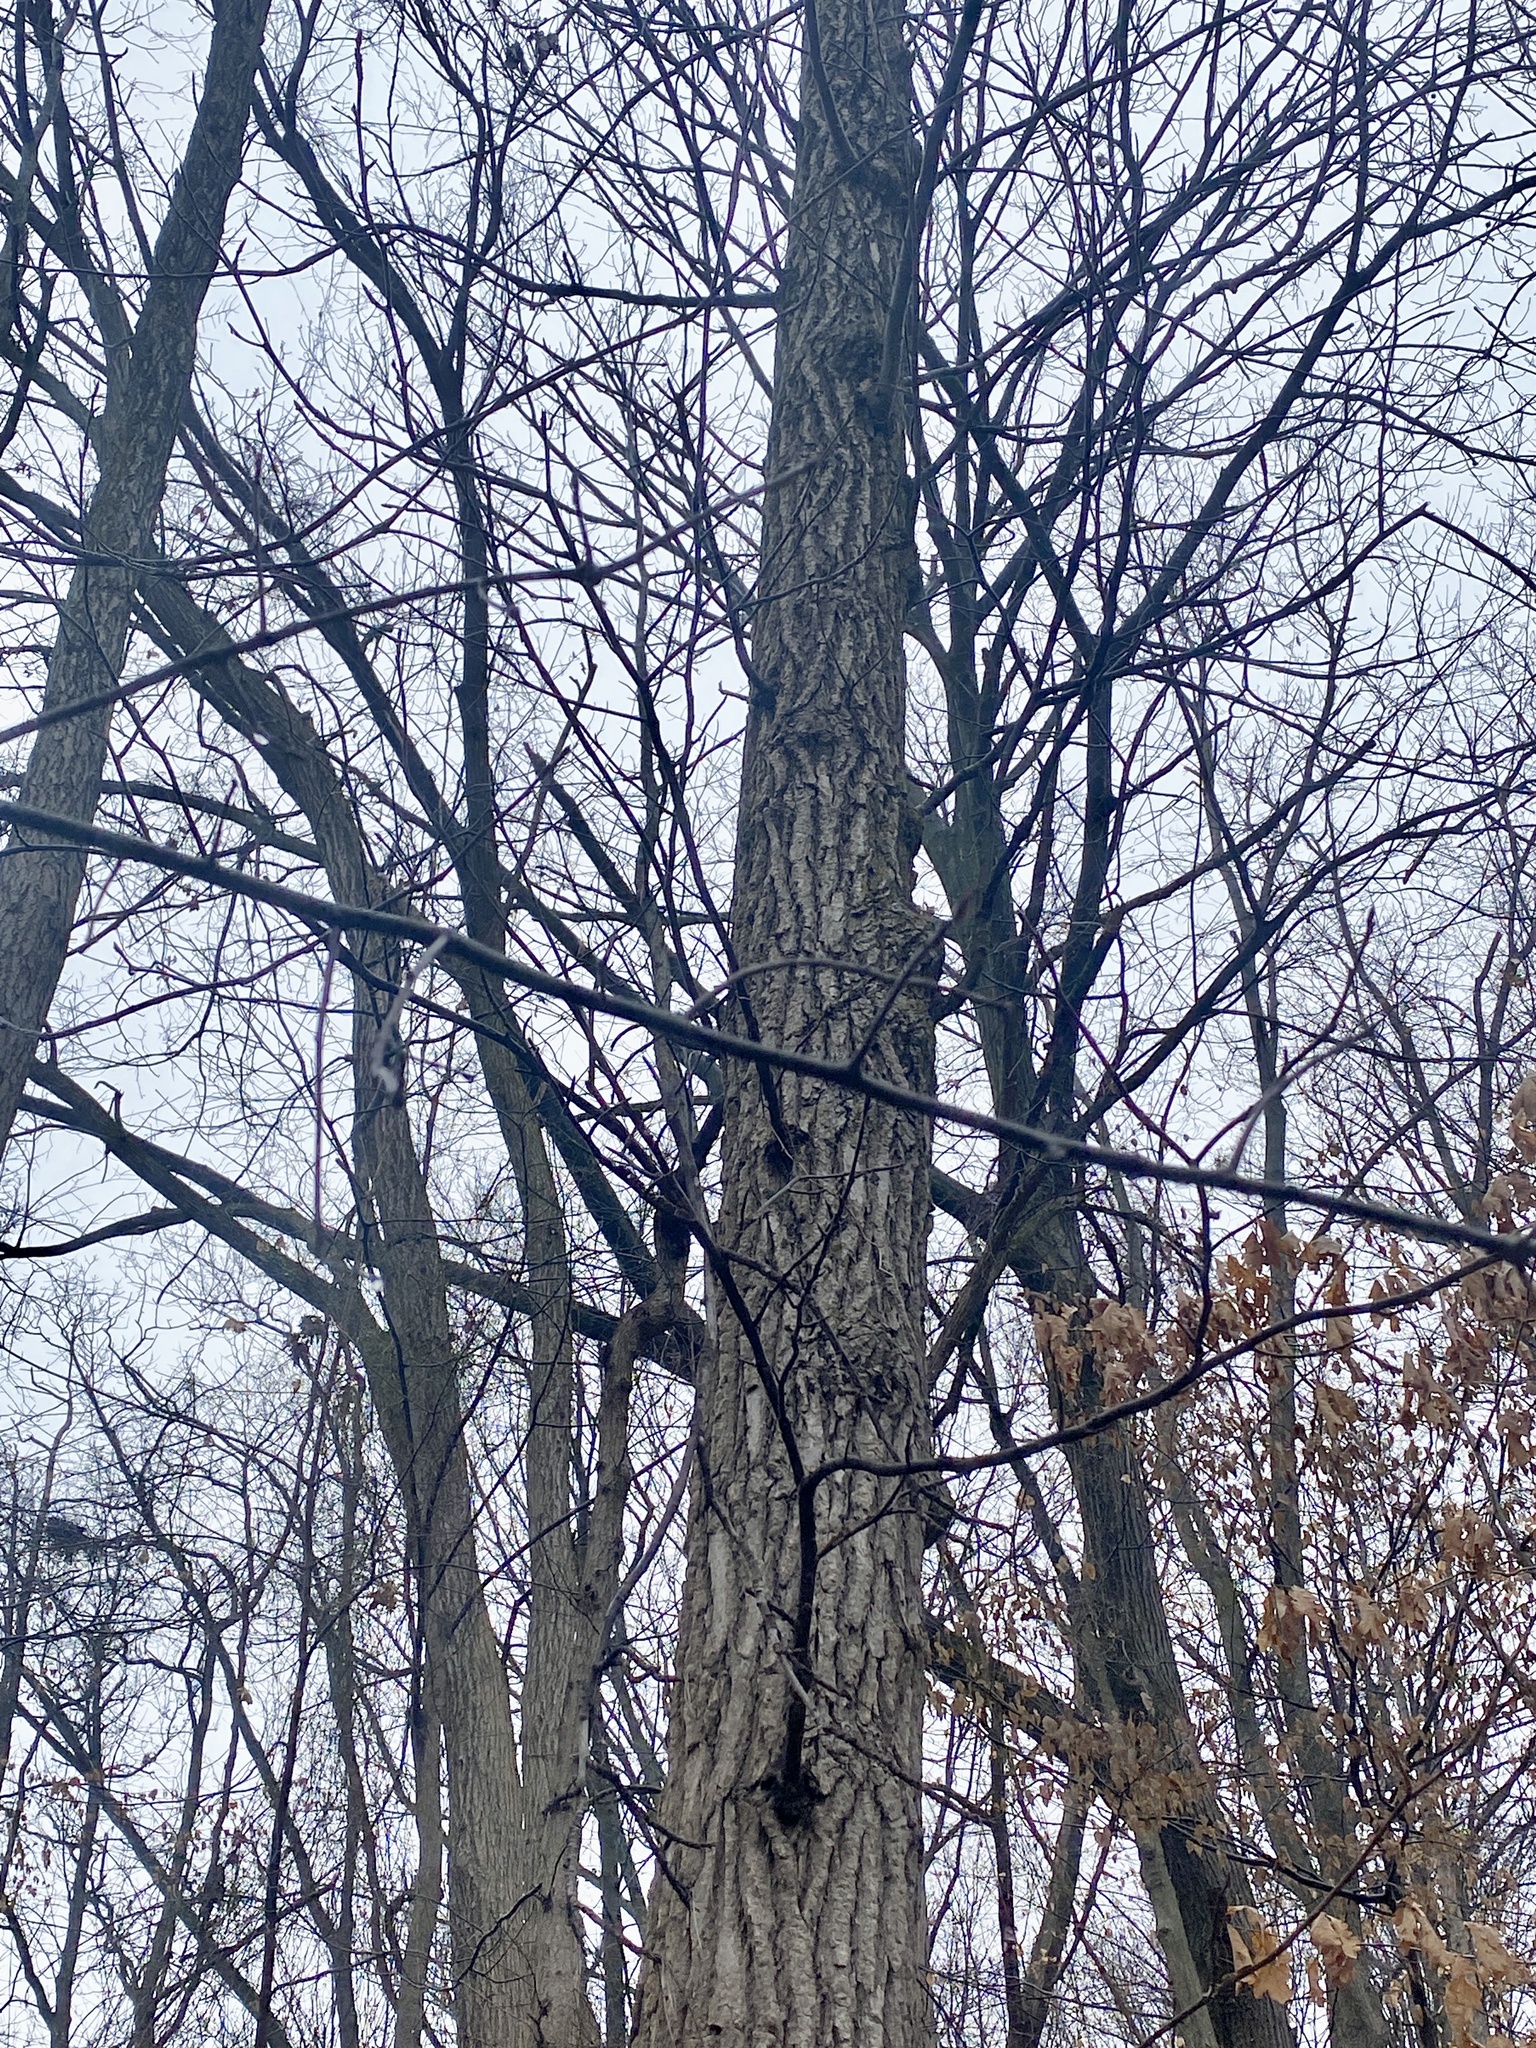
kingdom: Plantae
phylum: Tracheophyta
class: Magnoliopsida
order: Saxifragales
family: Altingiaceae
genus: Liquidambar
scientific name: Liquidambar styraciflua
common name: Sweet gum
